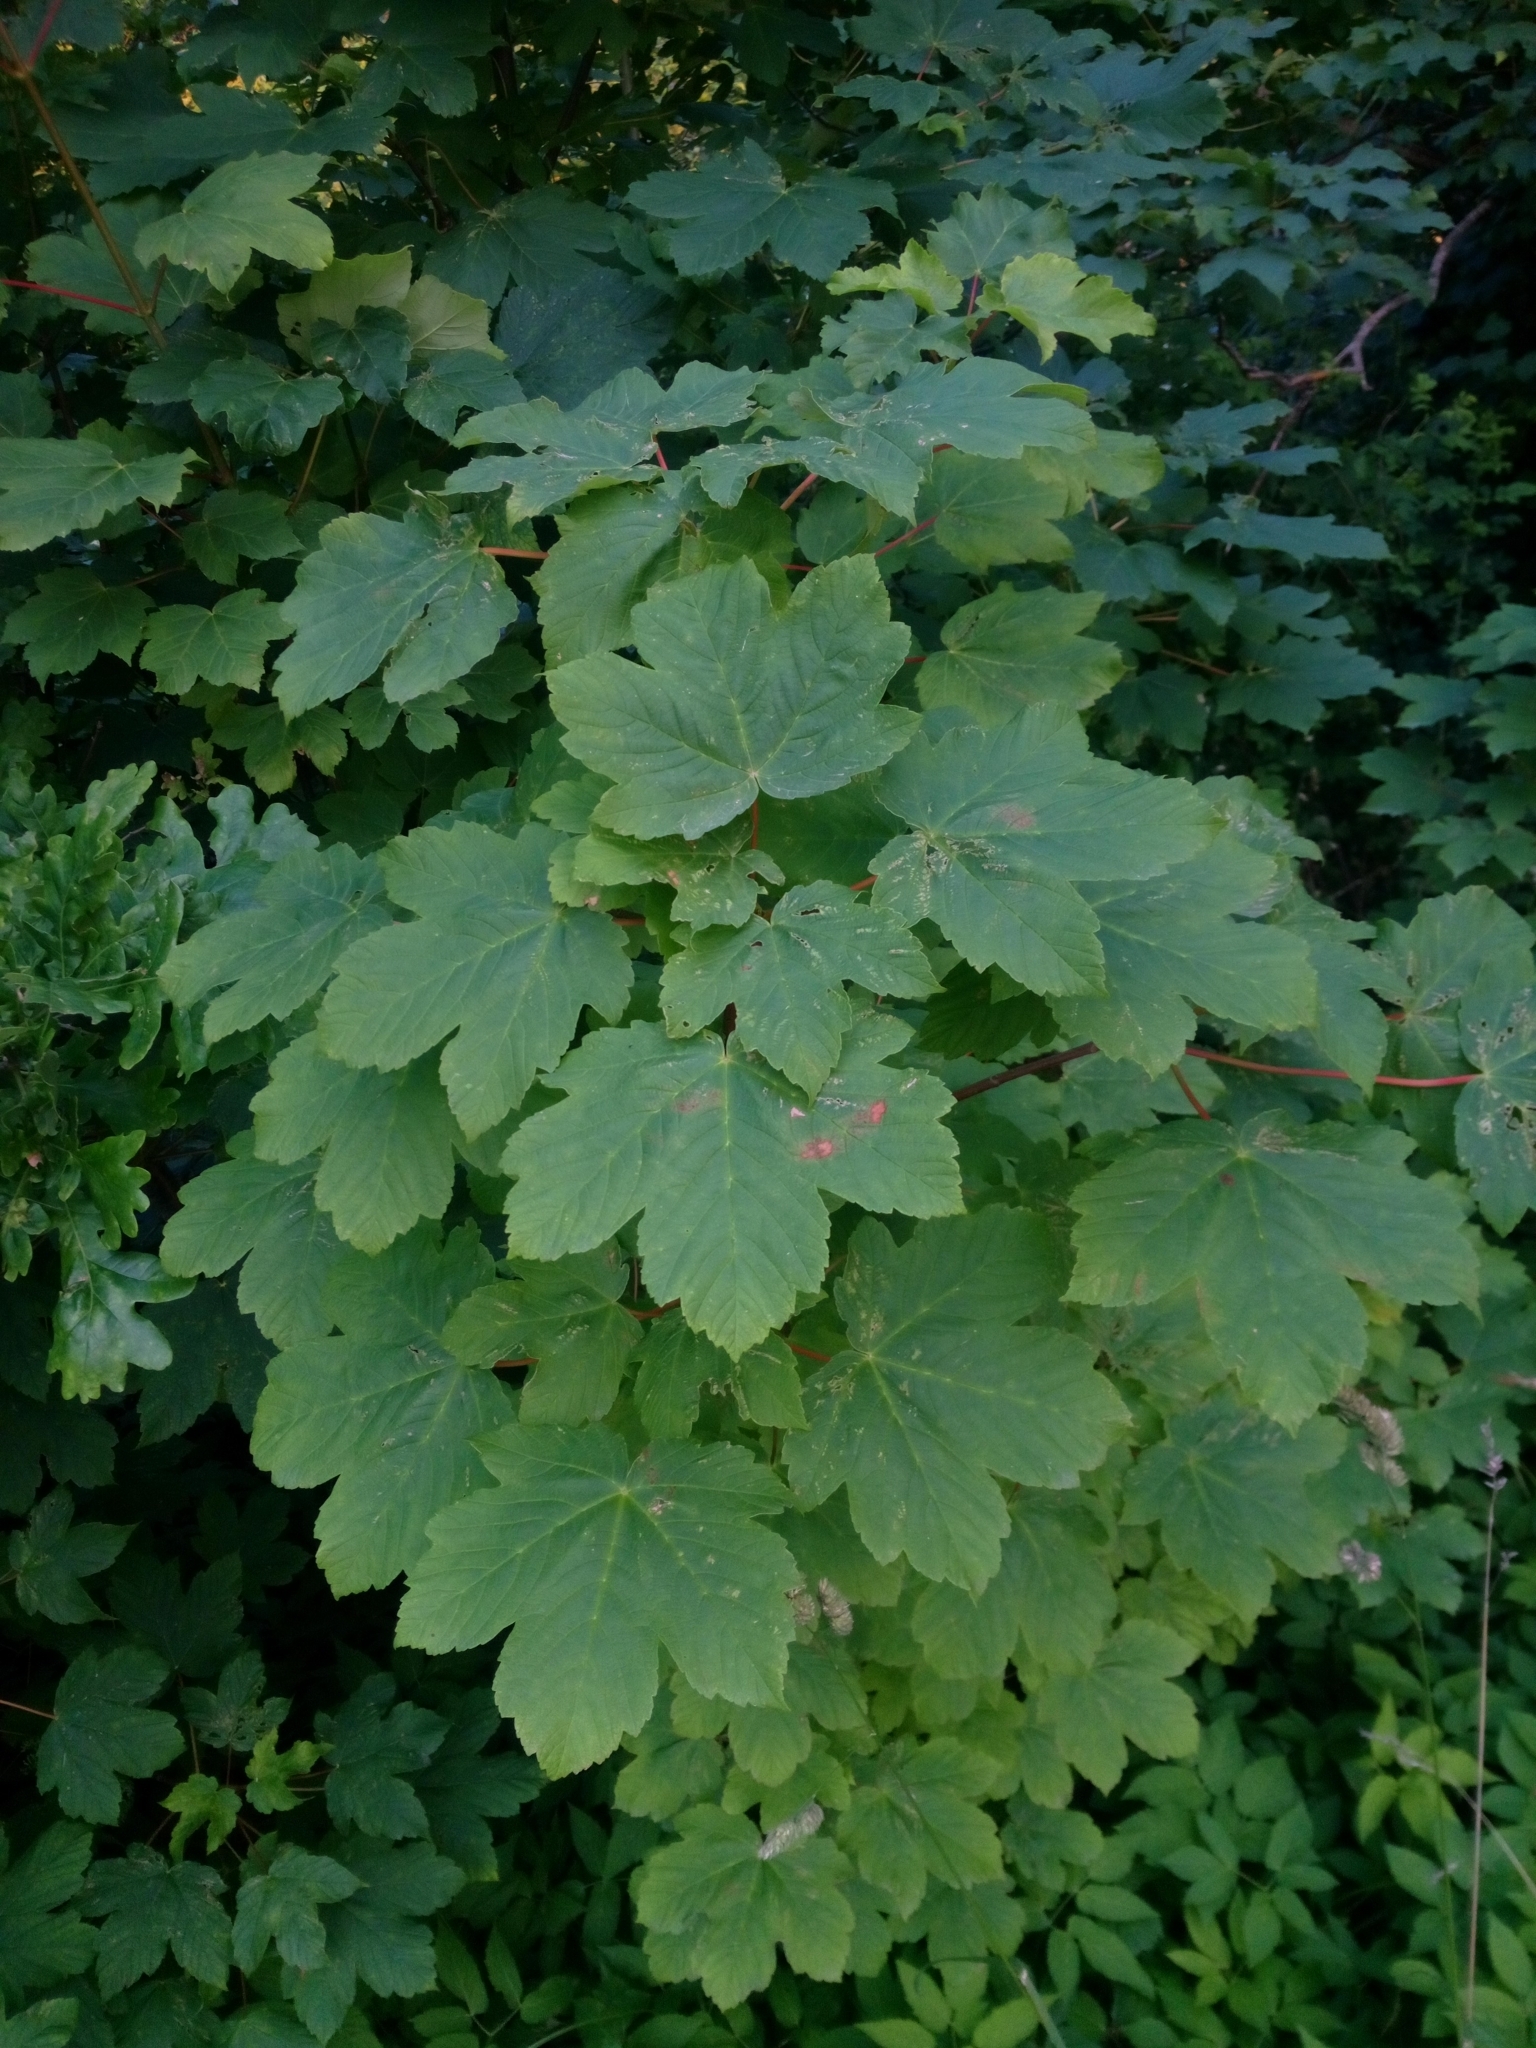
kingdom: Plantae
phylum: Tracheophyta
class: Magnoliopsida
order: Sapindales
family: Sapindaceae
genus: Acer
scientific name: Acer pseudoplatanus
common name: Sycamore
